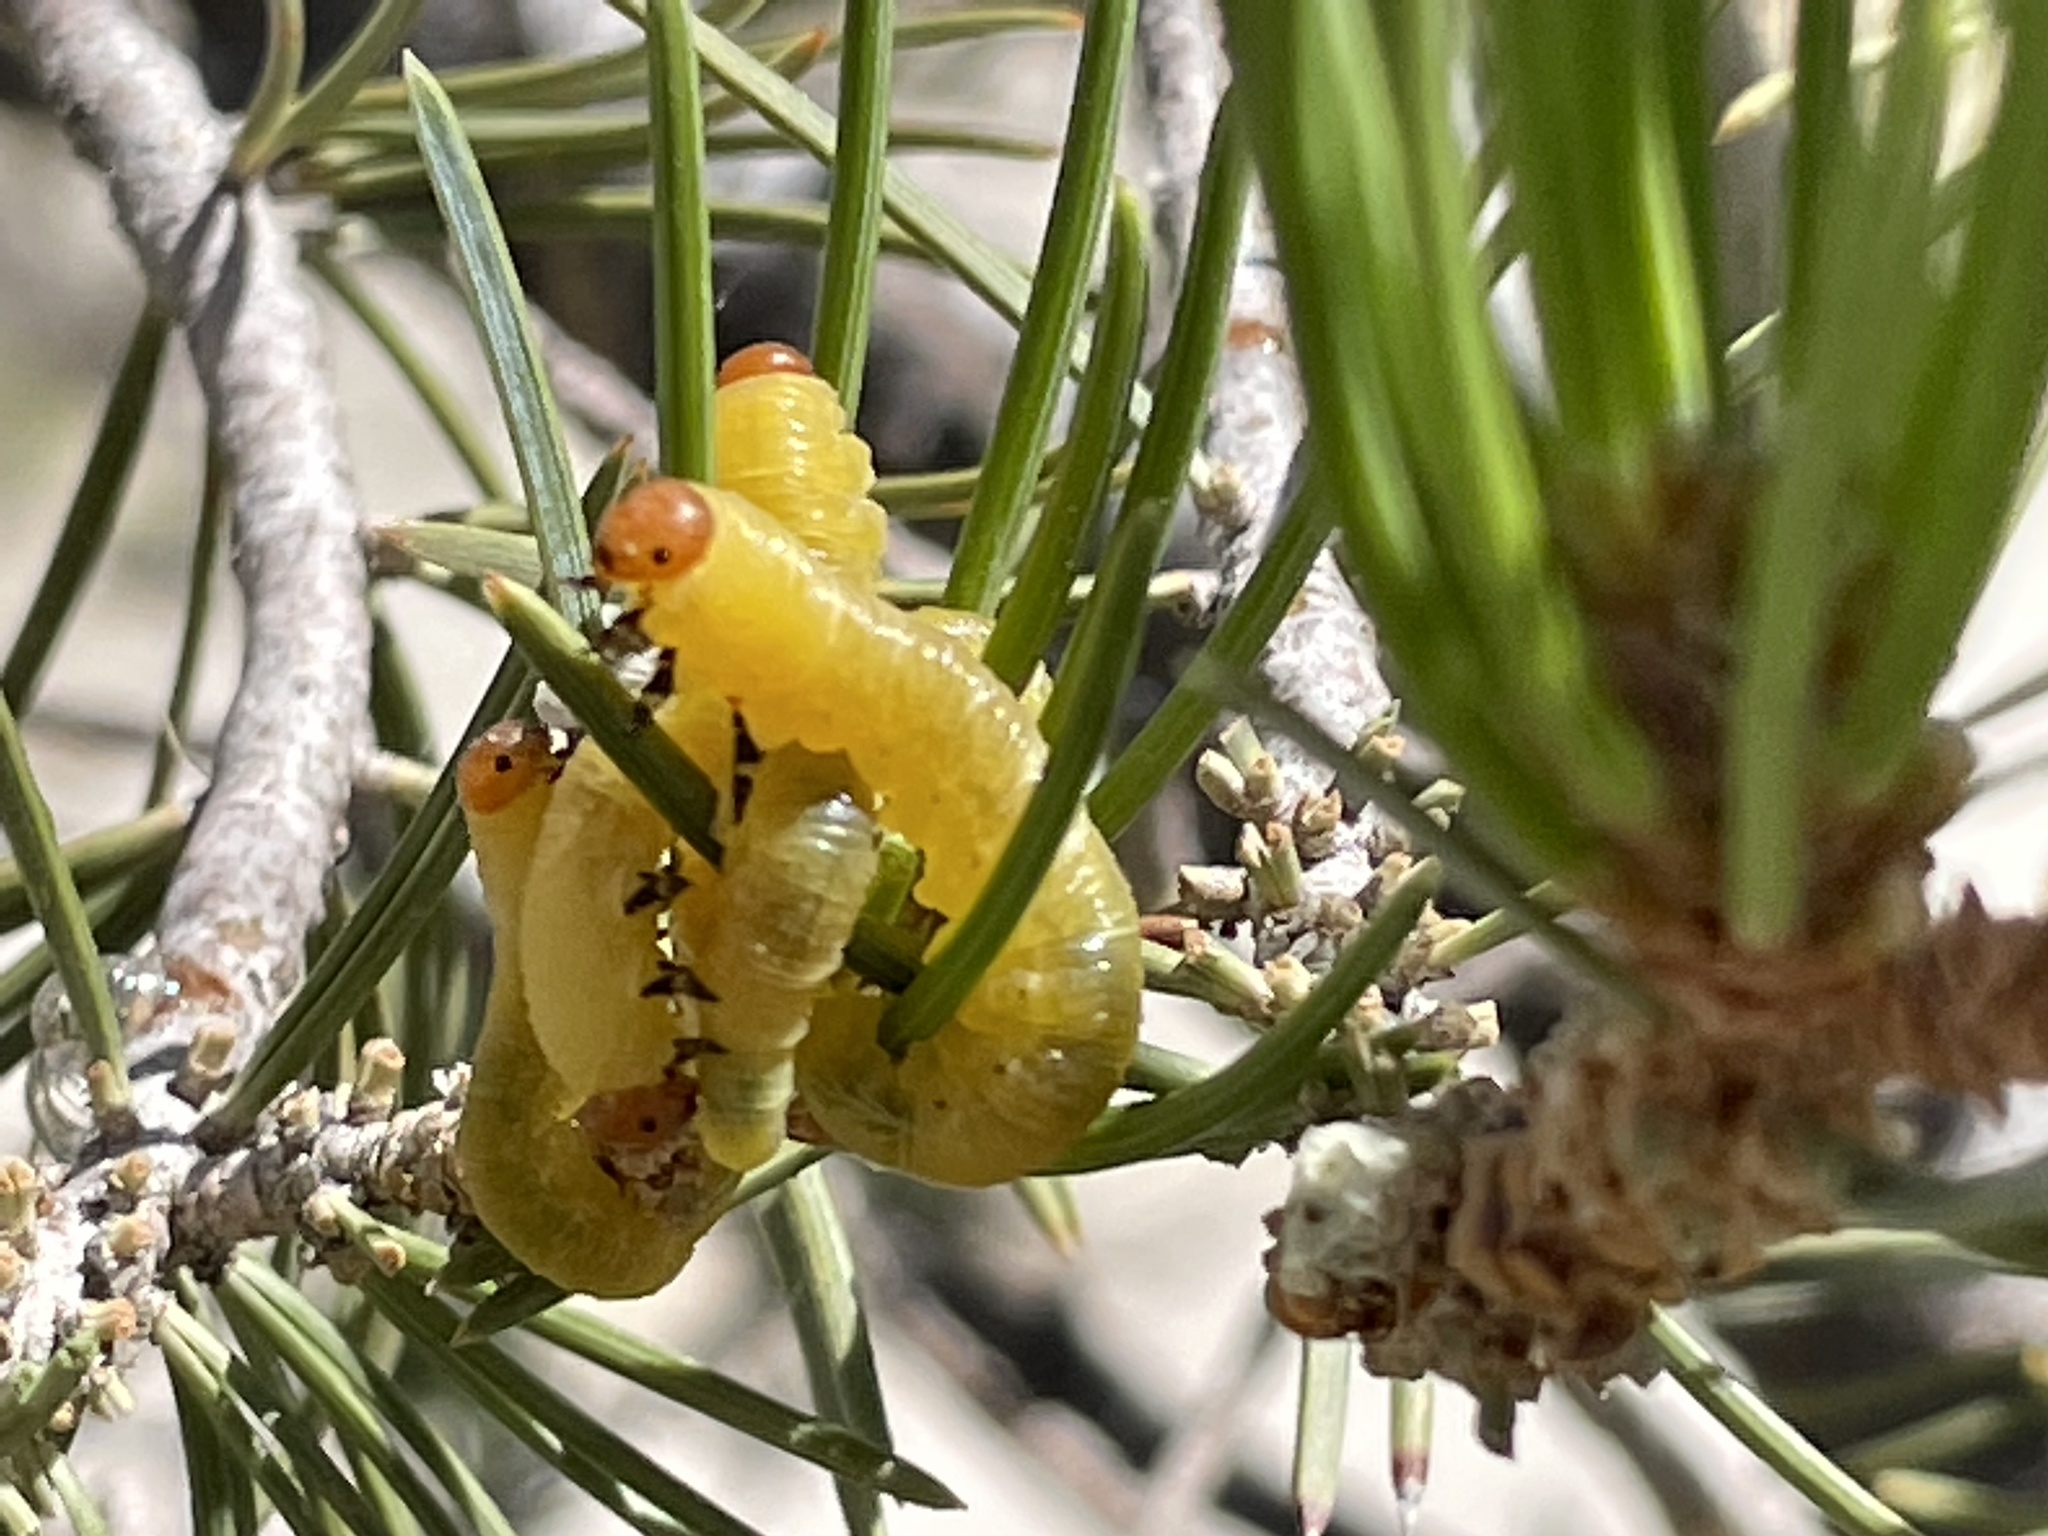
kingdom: Animalia
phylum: Arthropoda
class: Insecta
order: Hymenoptera
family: Diprionidae
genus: Zadiprion
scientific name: Zadiprion
